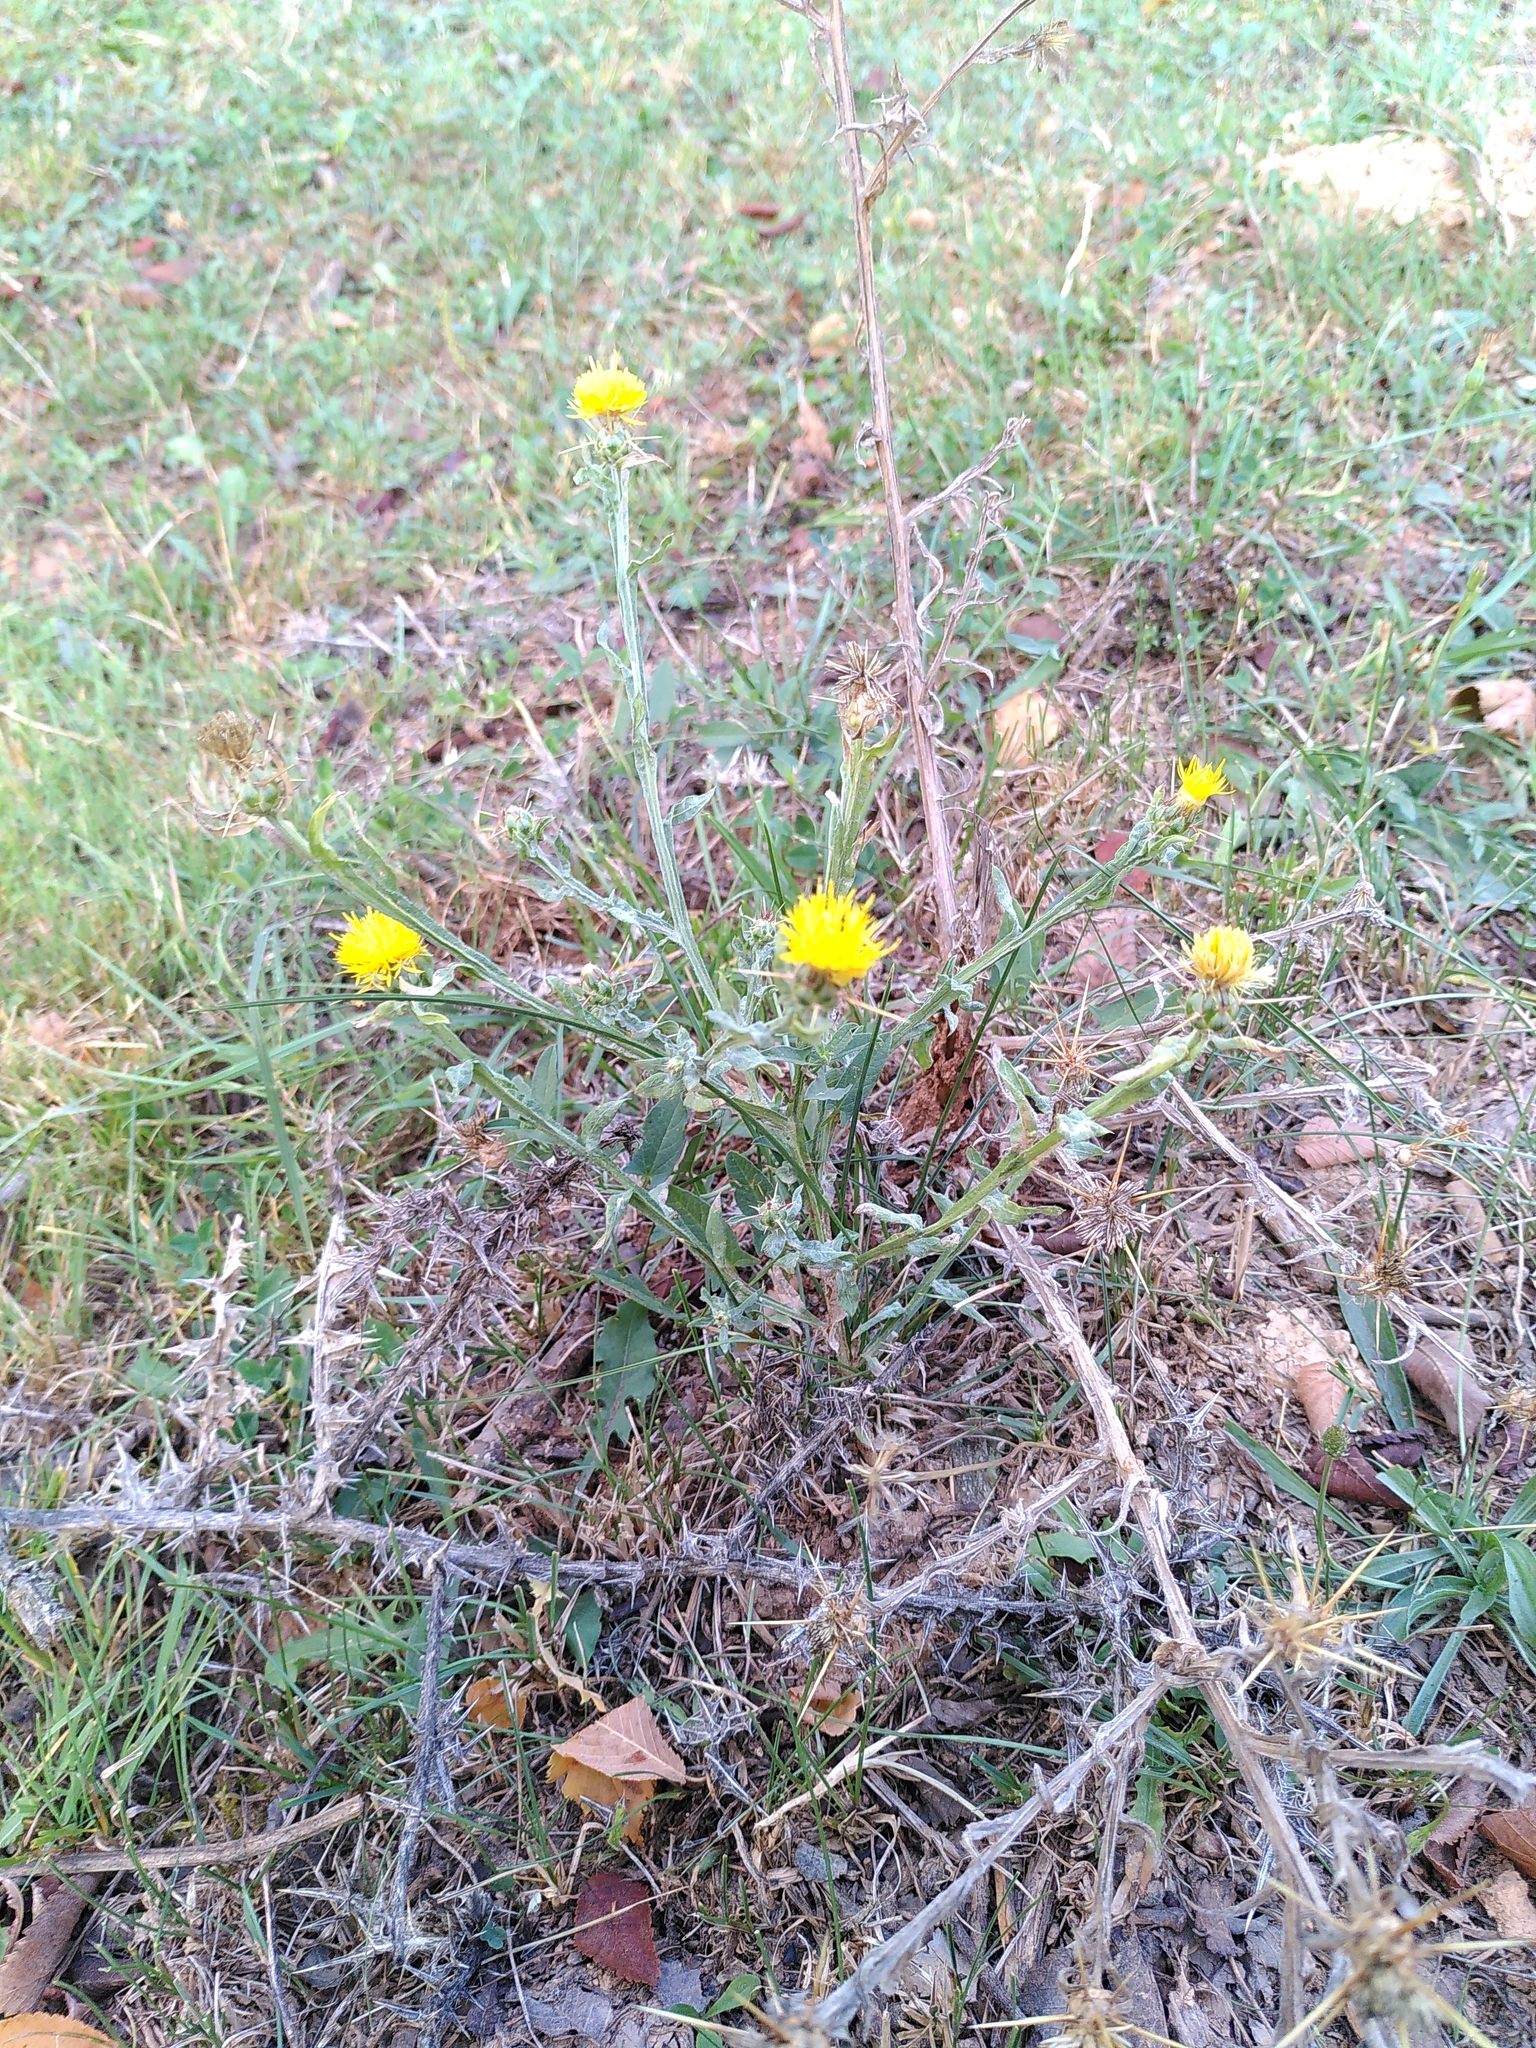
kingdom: Plantae
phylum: Tracheophyta
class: Magnoliopsida
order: Asterales
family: Asteraceae
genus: Centaurea
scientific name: Centaurea solstitialis
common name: Yellow star-thistle
